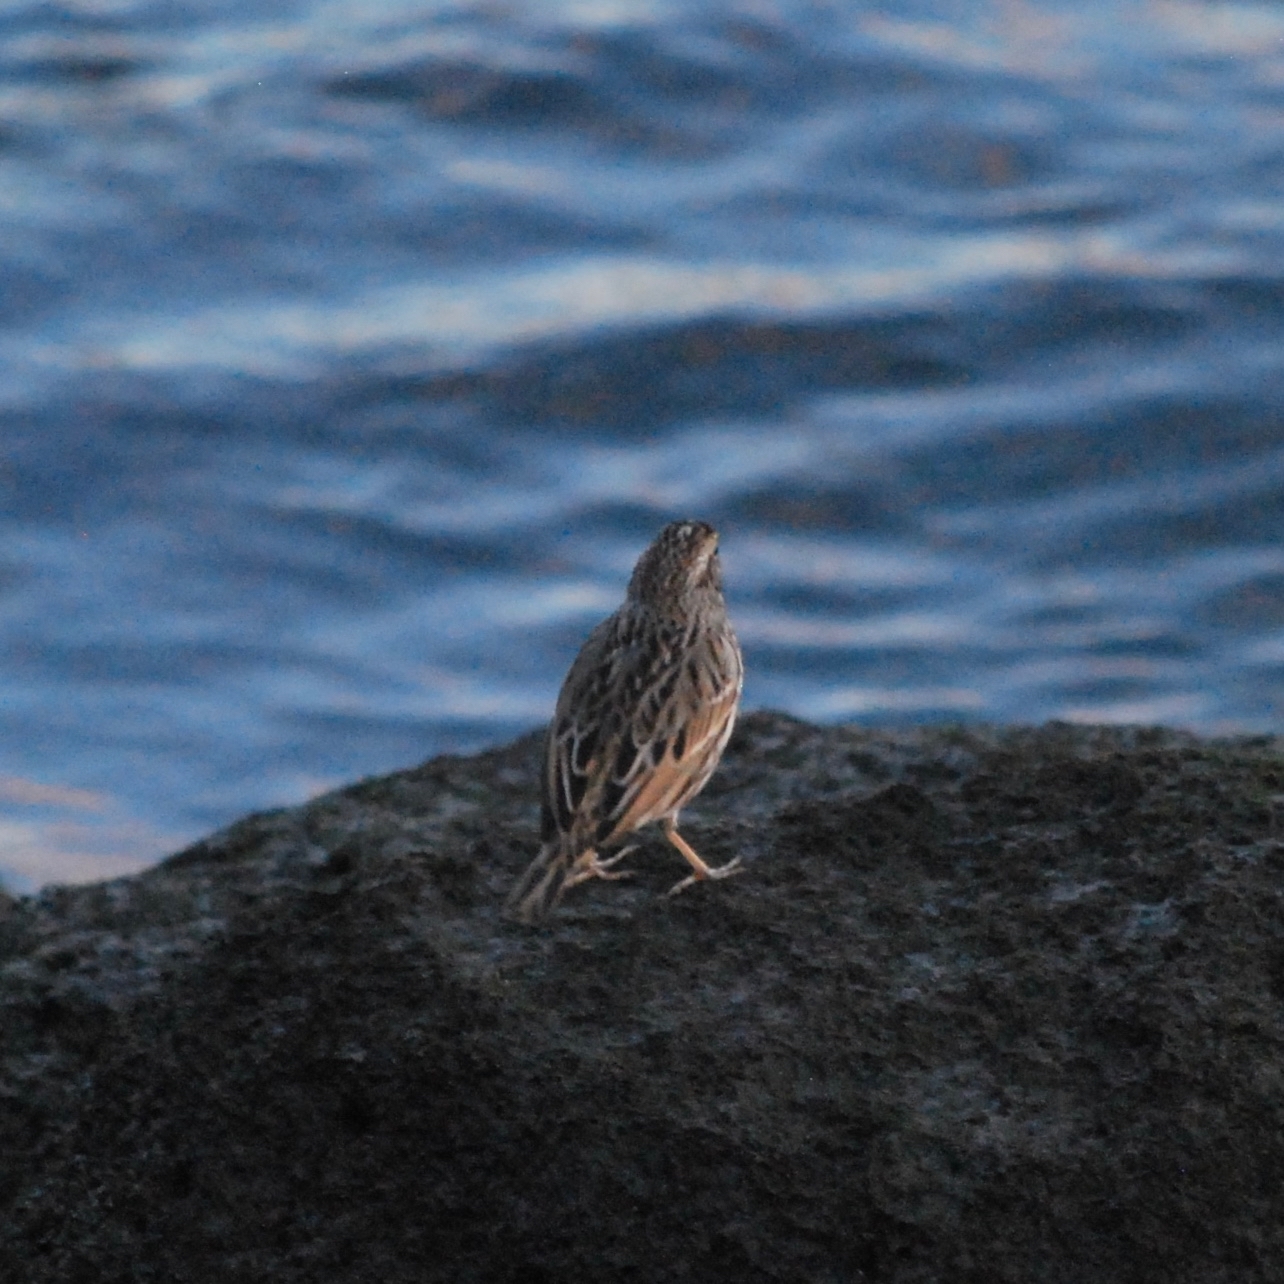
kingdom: Animalia
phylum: Chordata
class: Aves
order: Passeriformes
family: Passerellidae
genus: Passerculus
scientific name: Passerculus sandwichensis
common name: Savannah sparrow
